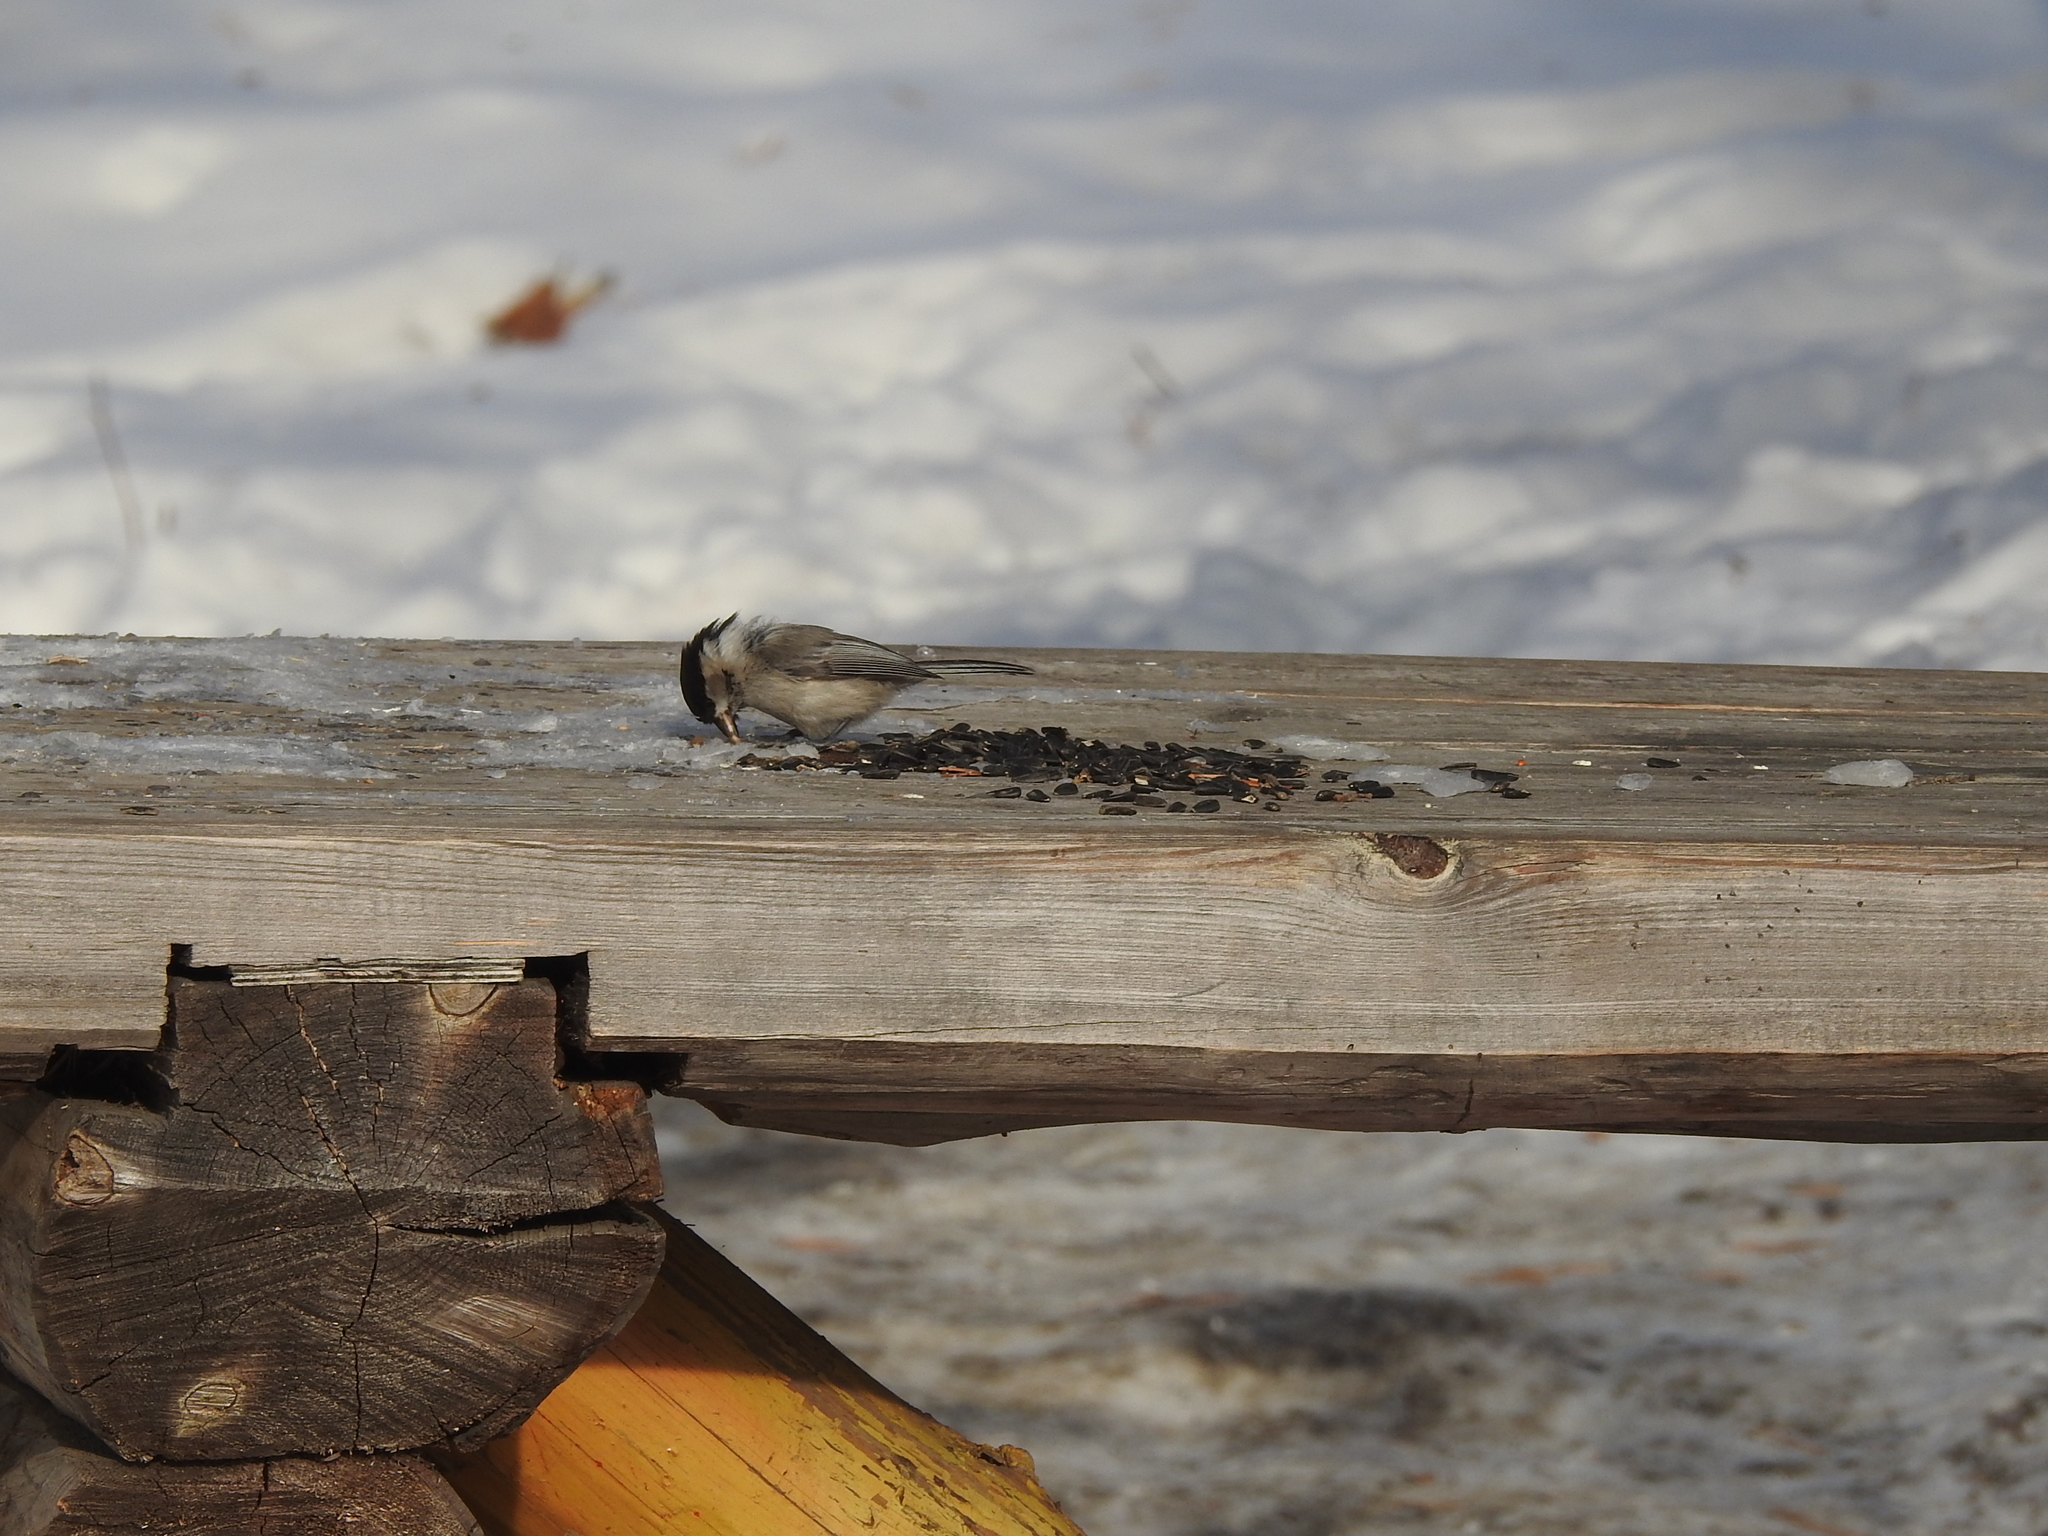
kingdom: Animalia
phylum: Chordata
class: Aves
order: Passeriformes
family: Paridae
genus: Poecile
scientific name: Poecile montanus
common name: Willow tit
